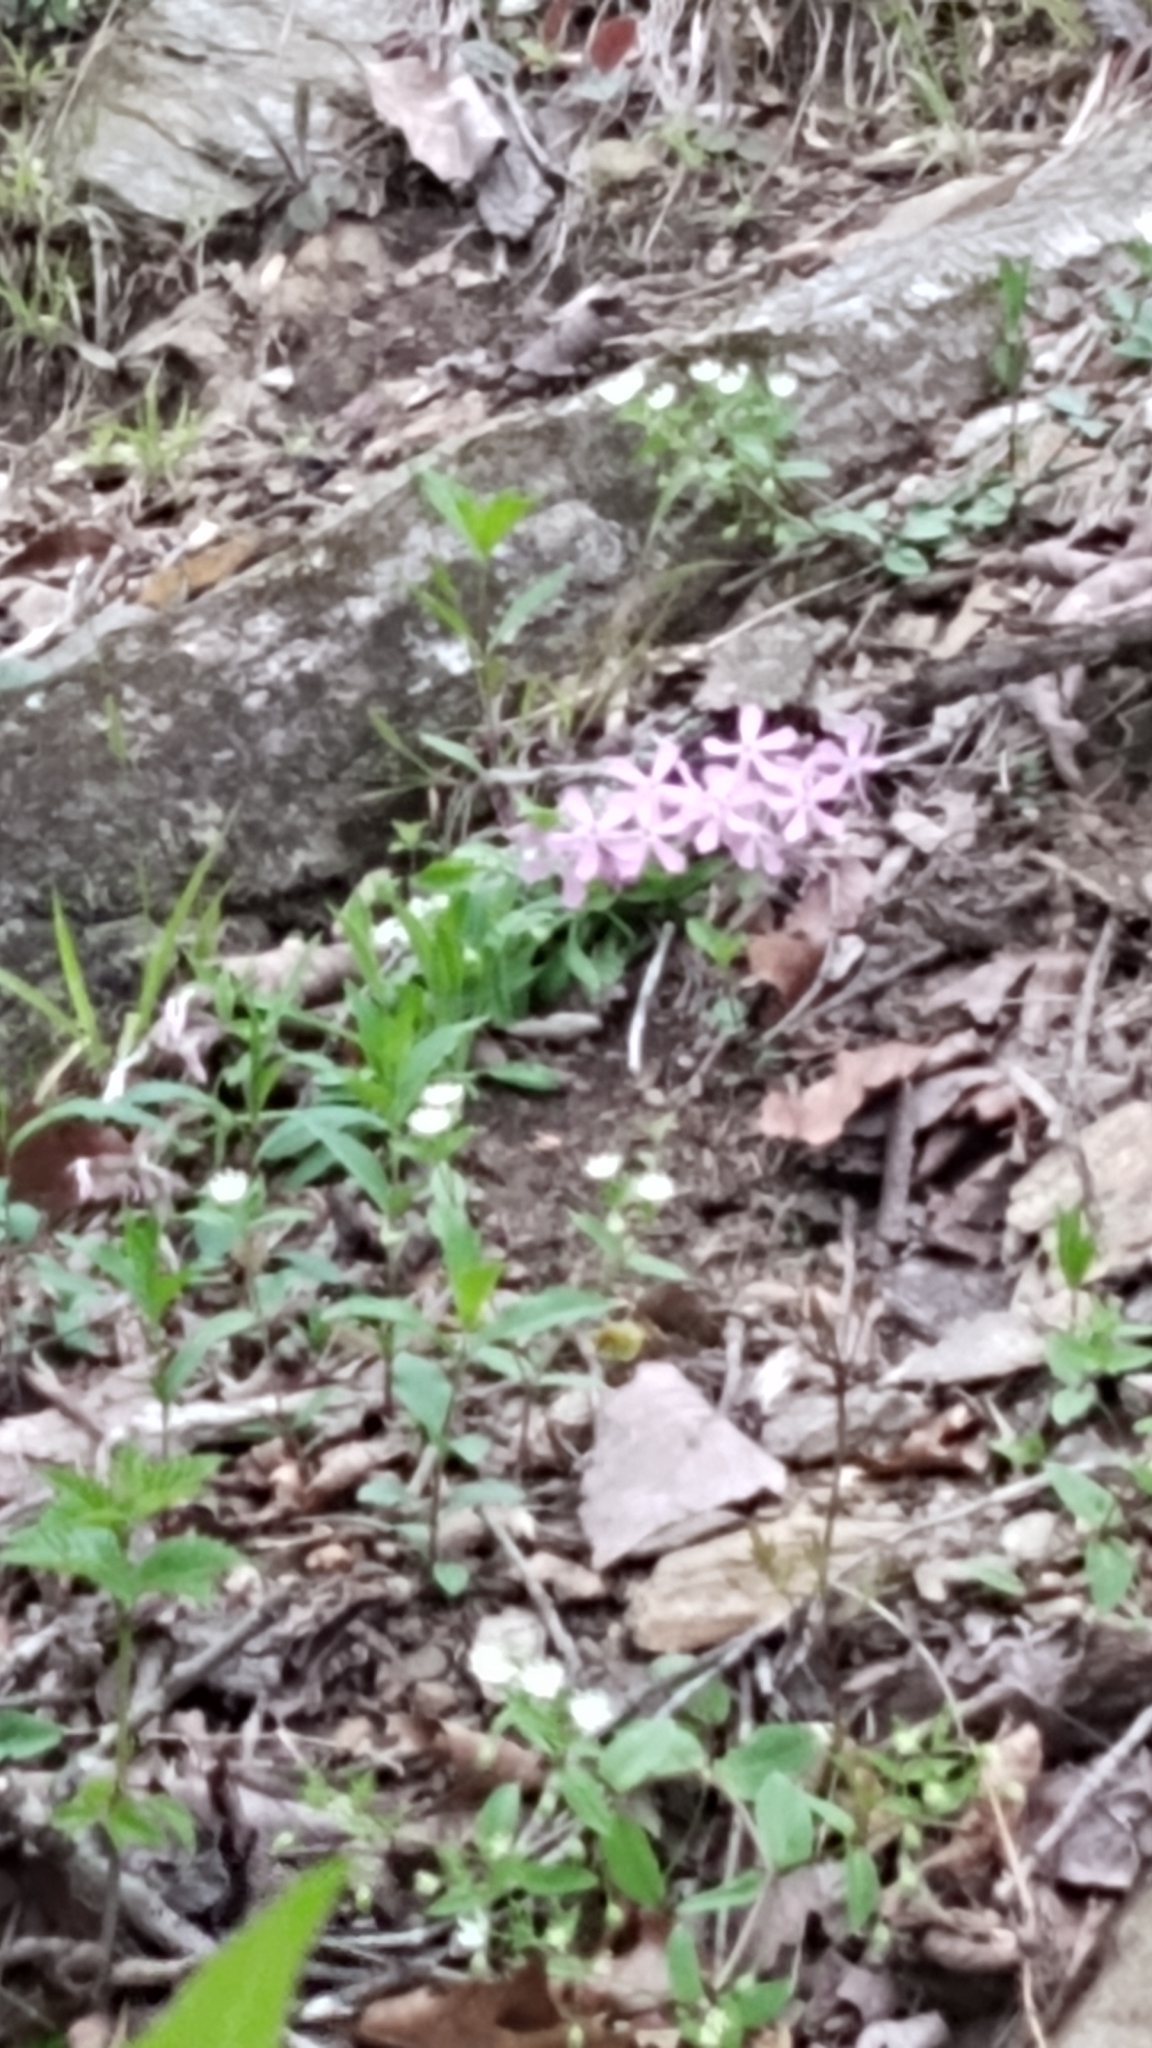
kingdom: Plantae
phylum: Tracheophyta
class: Magnoliopsida
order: Caryophyllales
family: Caryophyllaceae
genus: Silene
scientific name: Silene caroliniana
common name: Sticky catchfly
